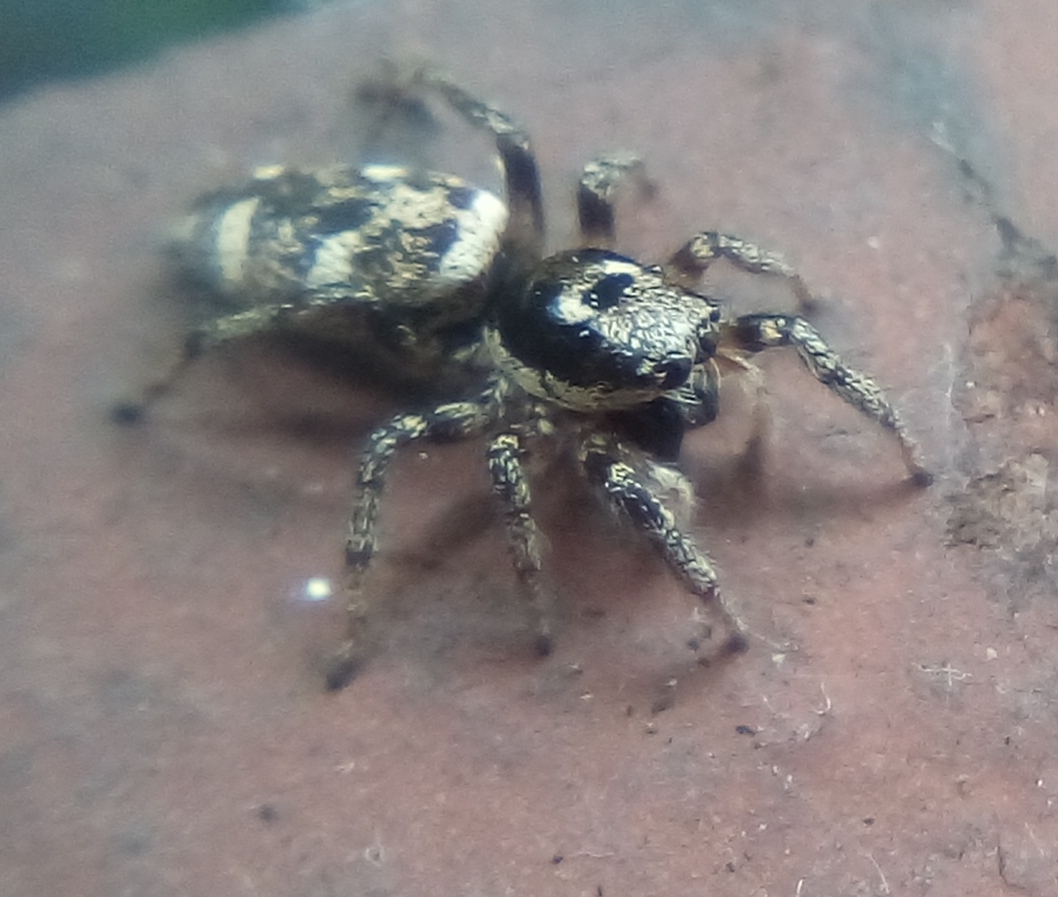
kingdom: Animalia
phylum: Arthropoda
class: Arachnida
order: Araneae
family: Salticidae
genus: Salticus
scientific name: Salticus scenicus
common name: Zebra jumper
